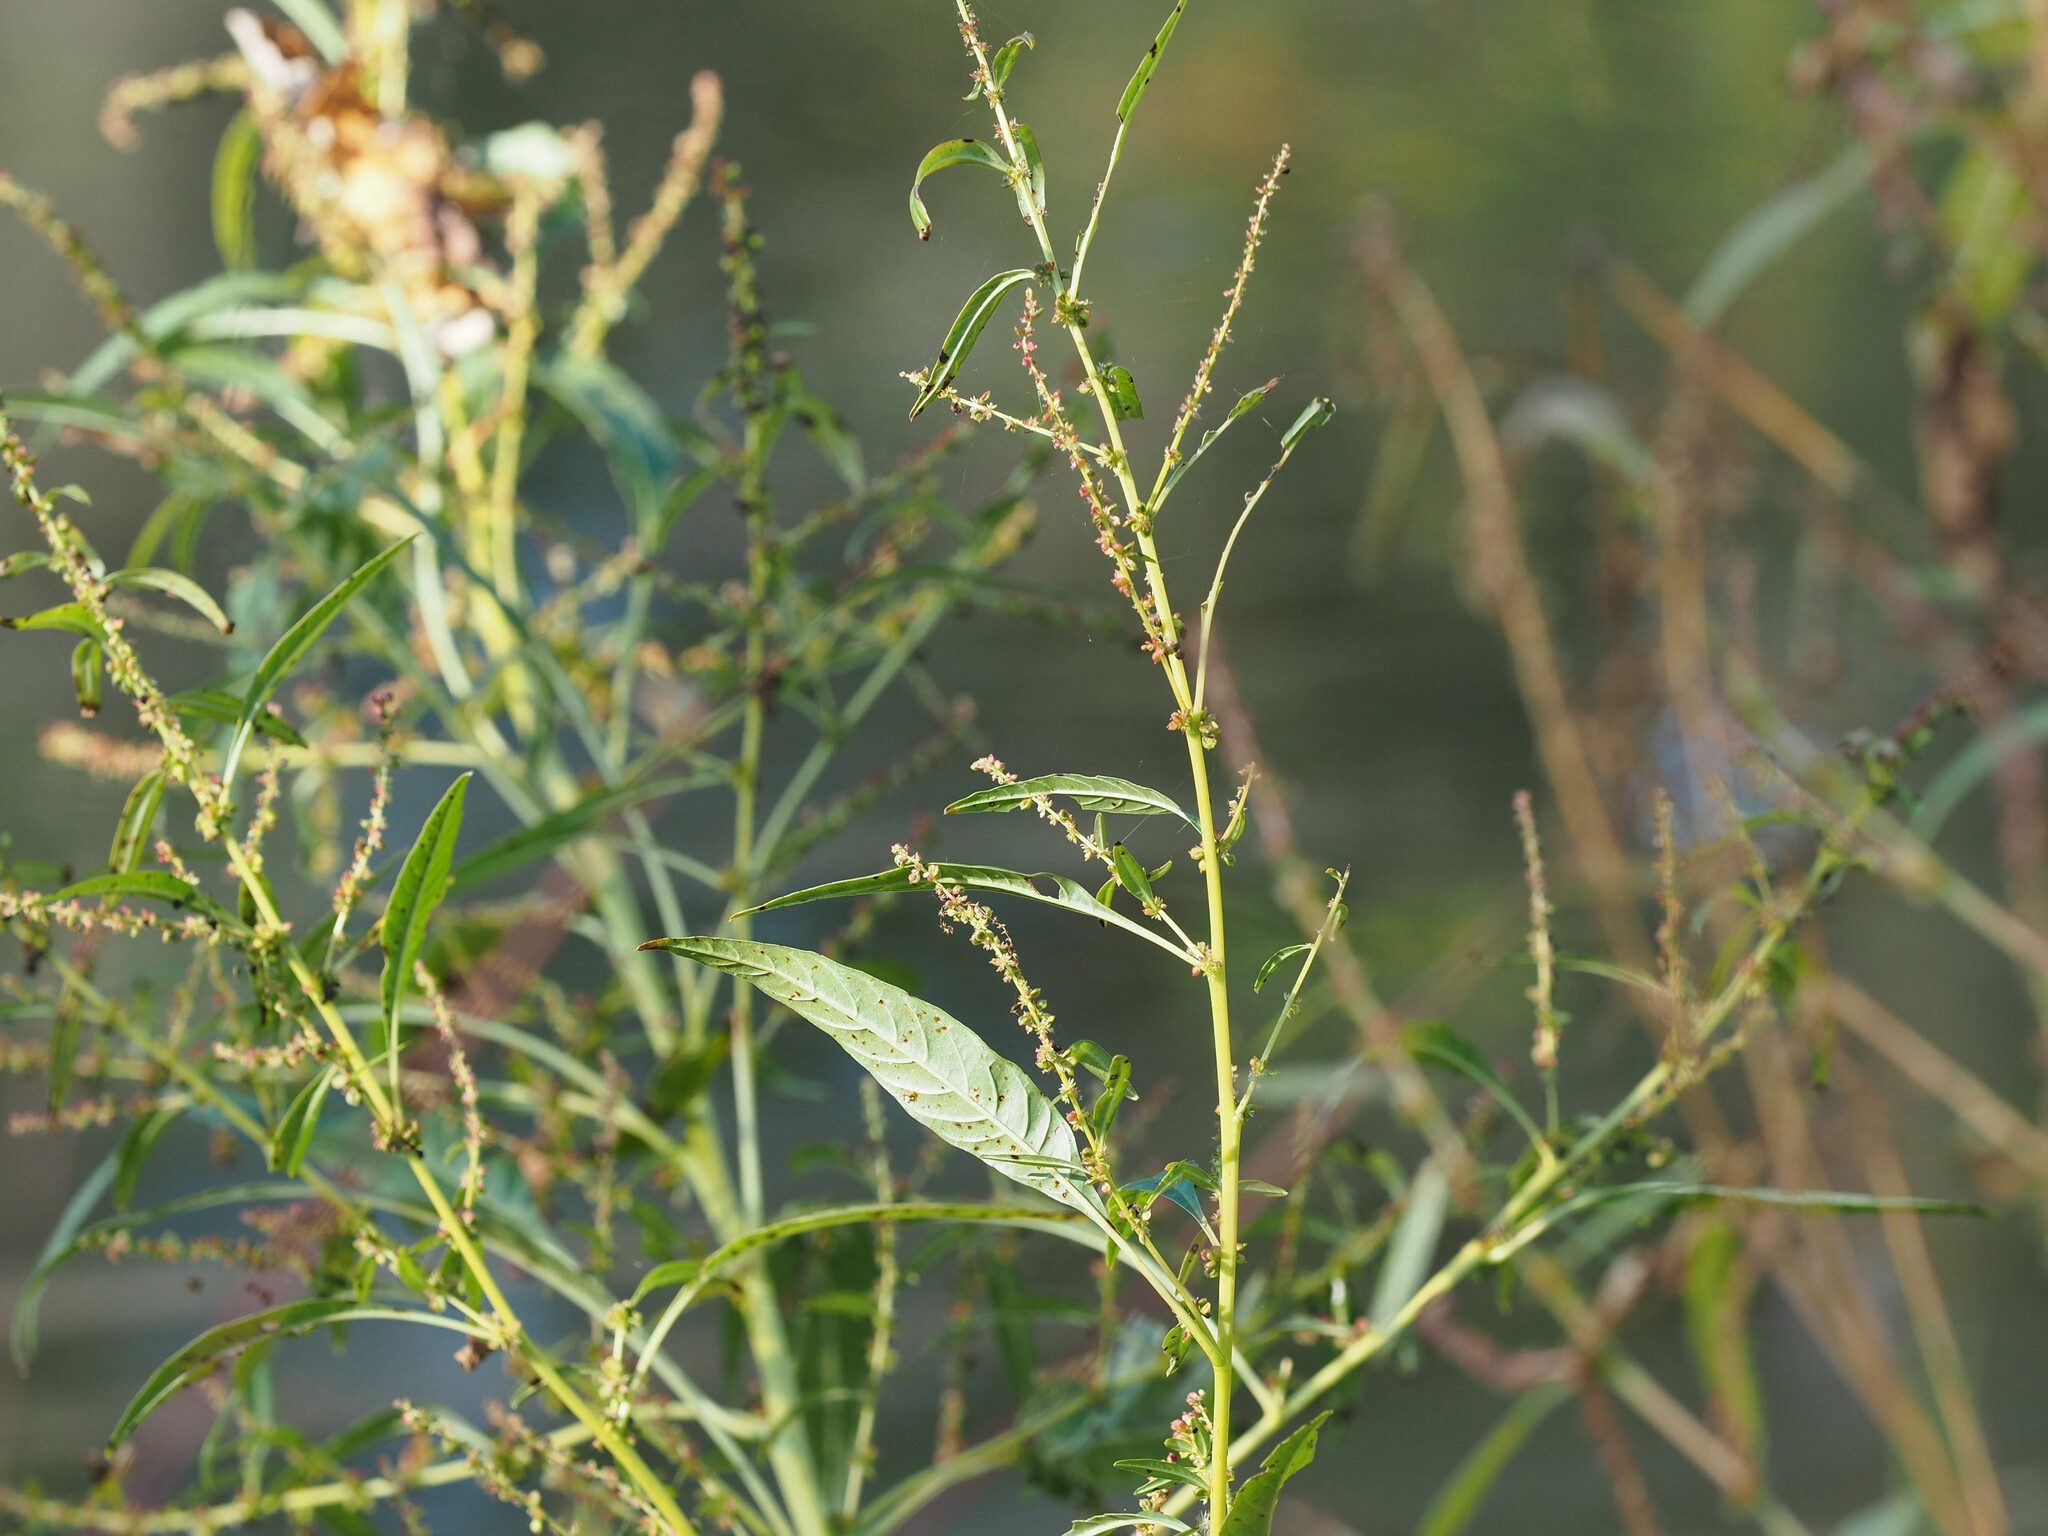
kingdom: Plantae
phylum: Tracheophyta
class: Magnoliopsida
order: Caryophyllales
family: Amaranthaceae
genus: Amaranthus
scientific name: Amaranthus cannabinus
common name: Salt-marsh water-hemp
